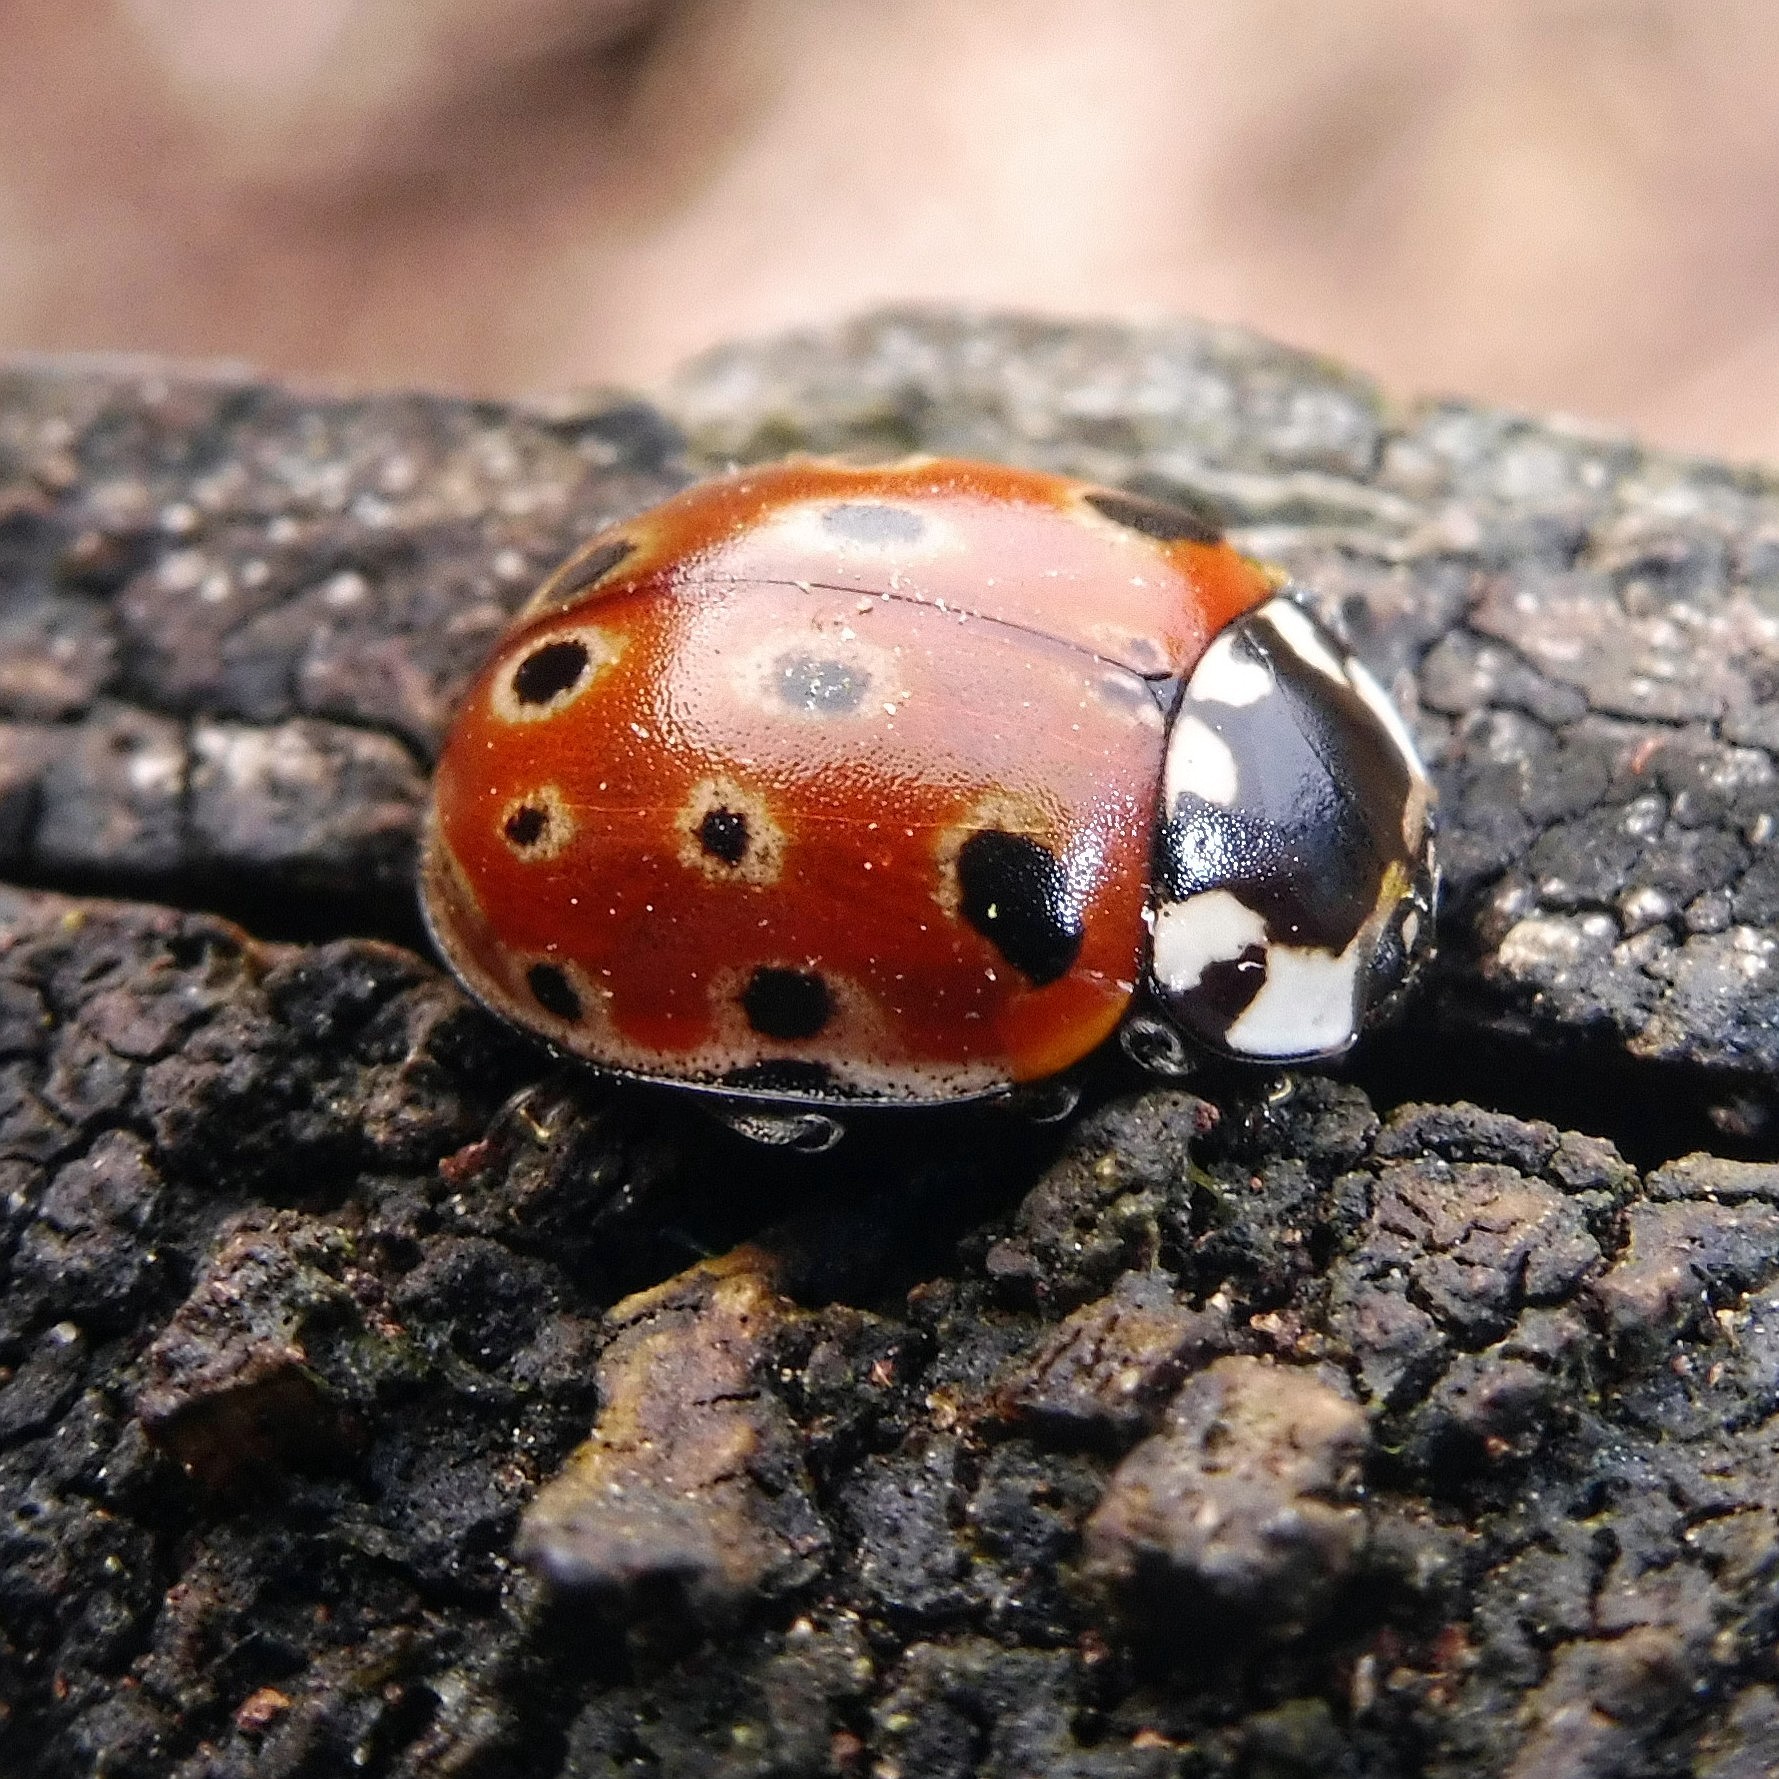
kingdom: Animalia
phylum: Arthropoda
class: Insecta
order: Coleoptera
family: Coccinellidae
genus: Anatis
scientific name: Anatis ocellata
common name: Eyed ladybird
